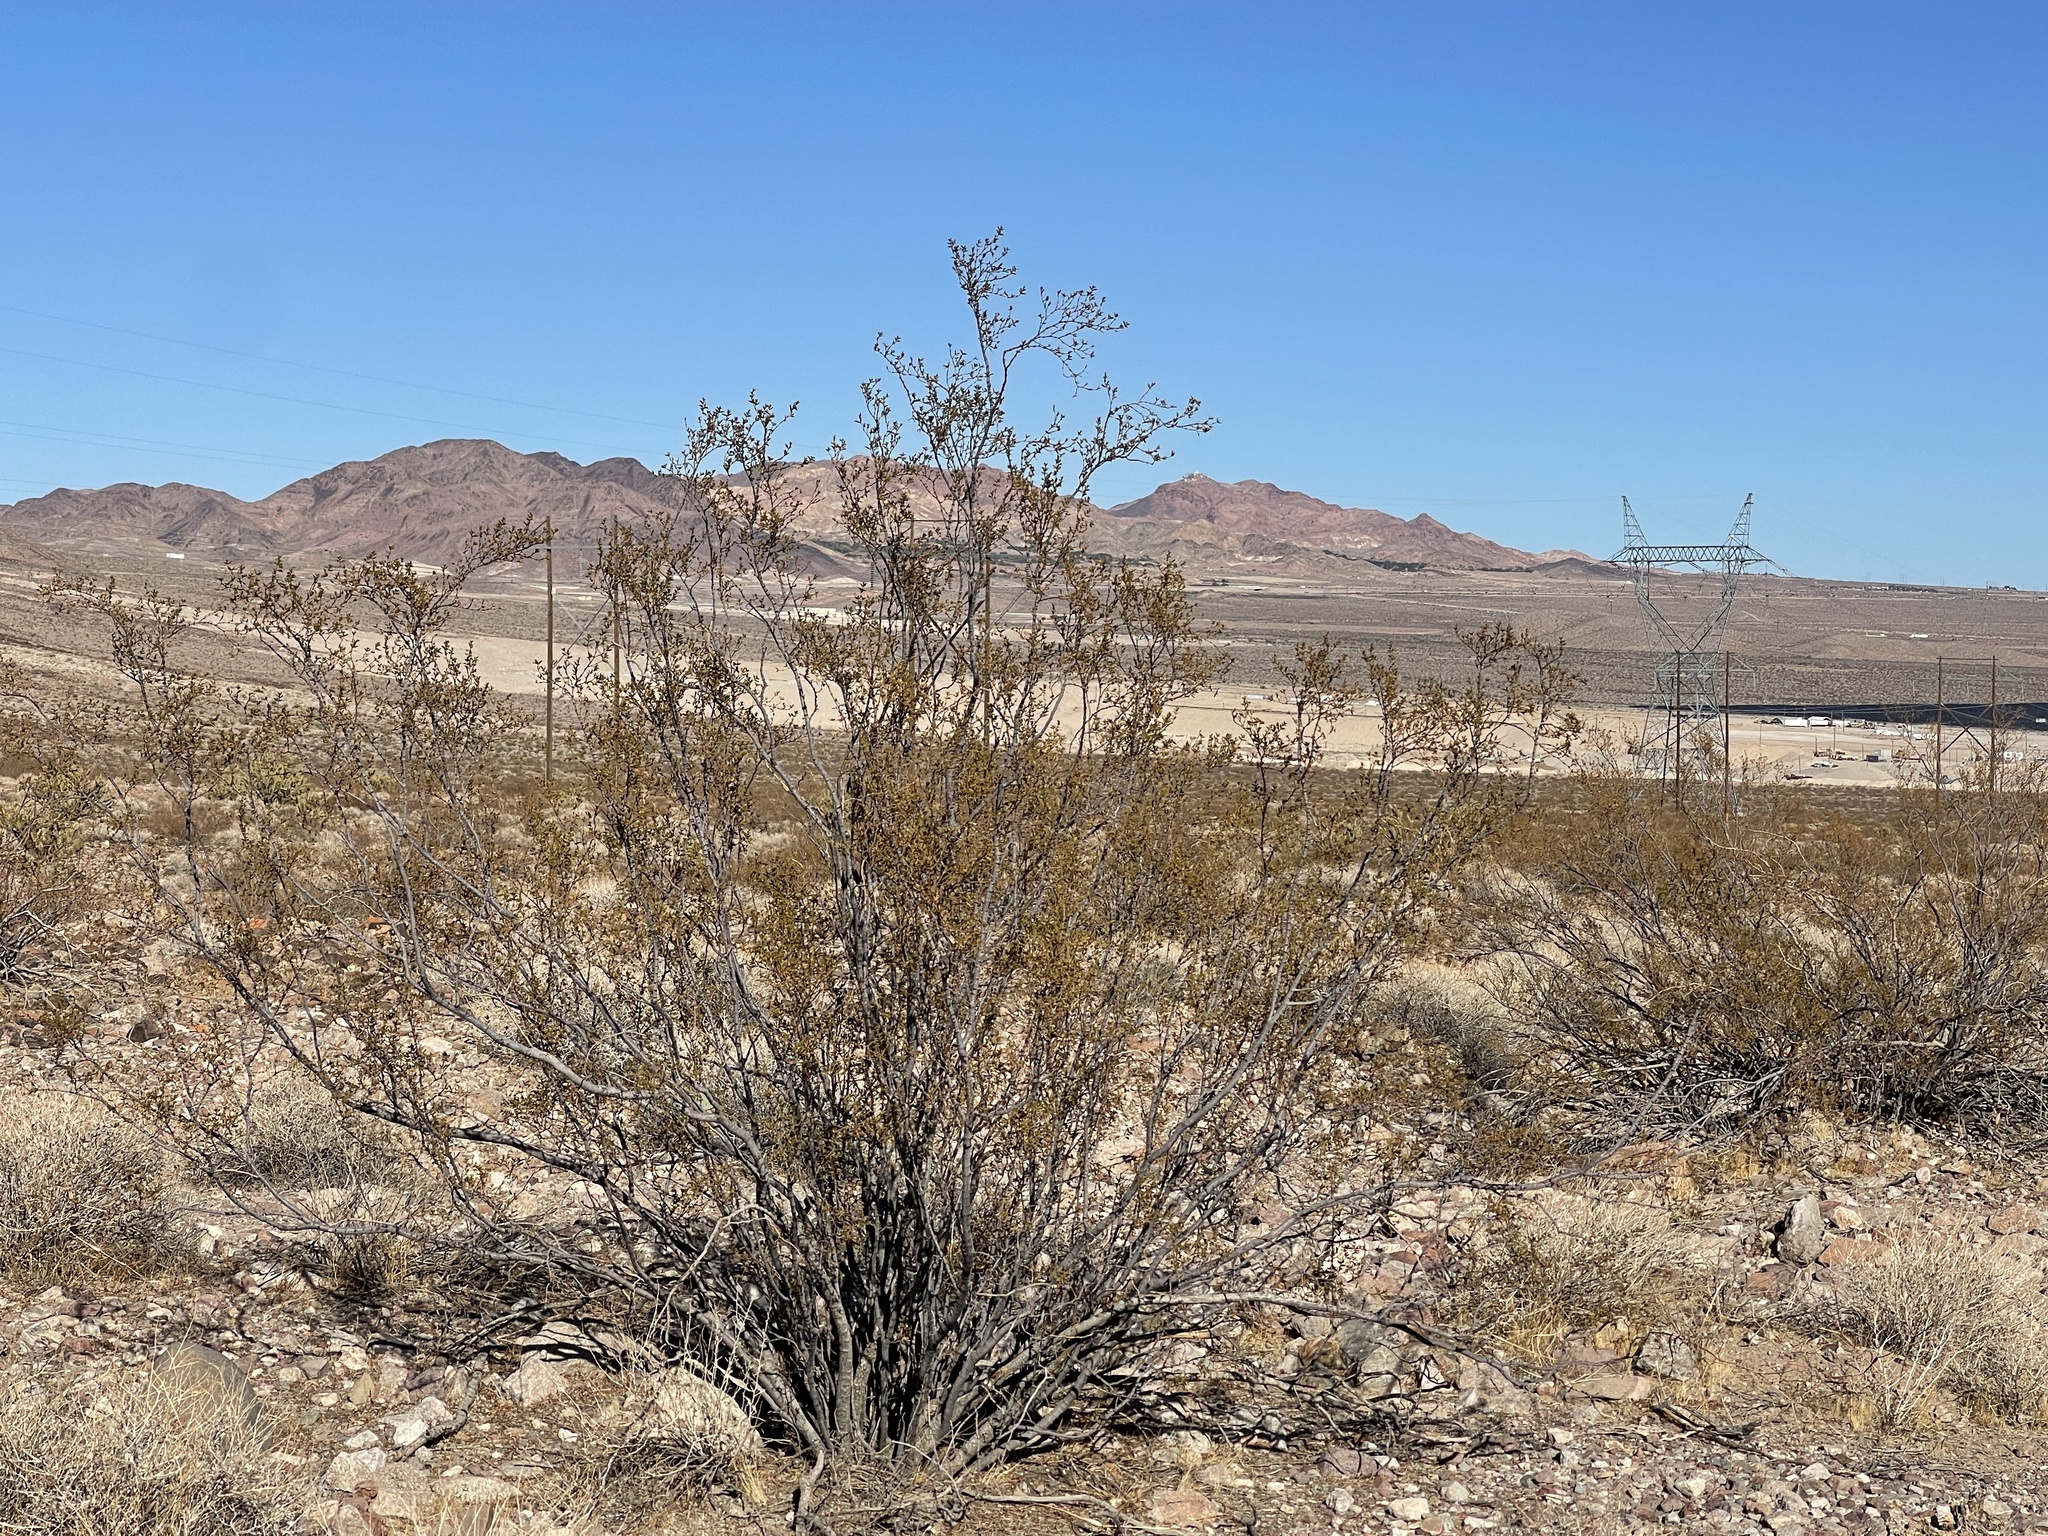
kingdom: Plantae
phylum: Tracheophyta
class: Magnoliopsida
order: Zygophyllales
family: Zygophyllaceae
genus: Larrea
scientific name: Larrea tridentata
